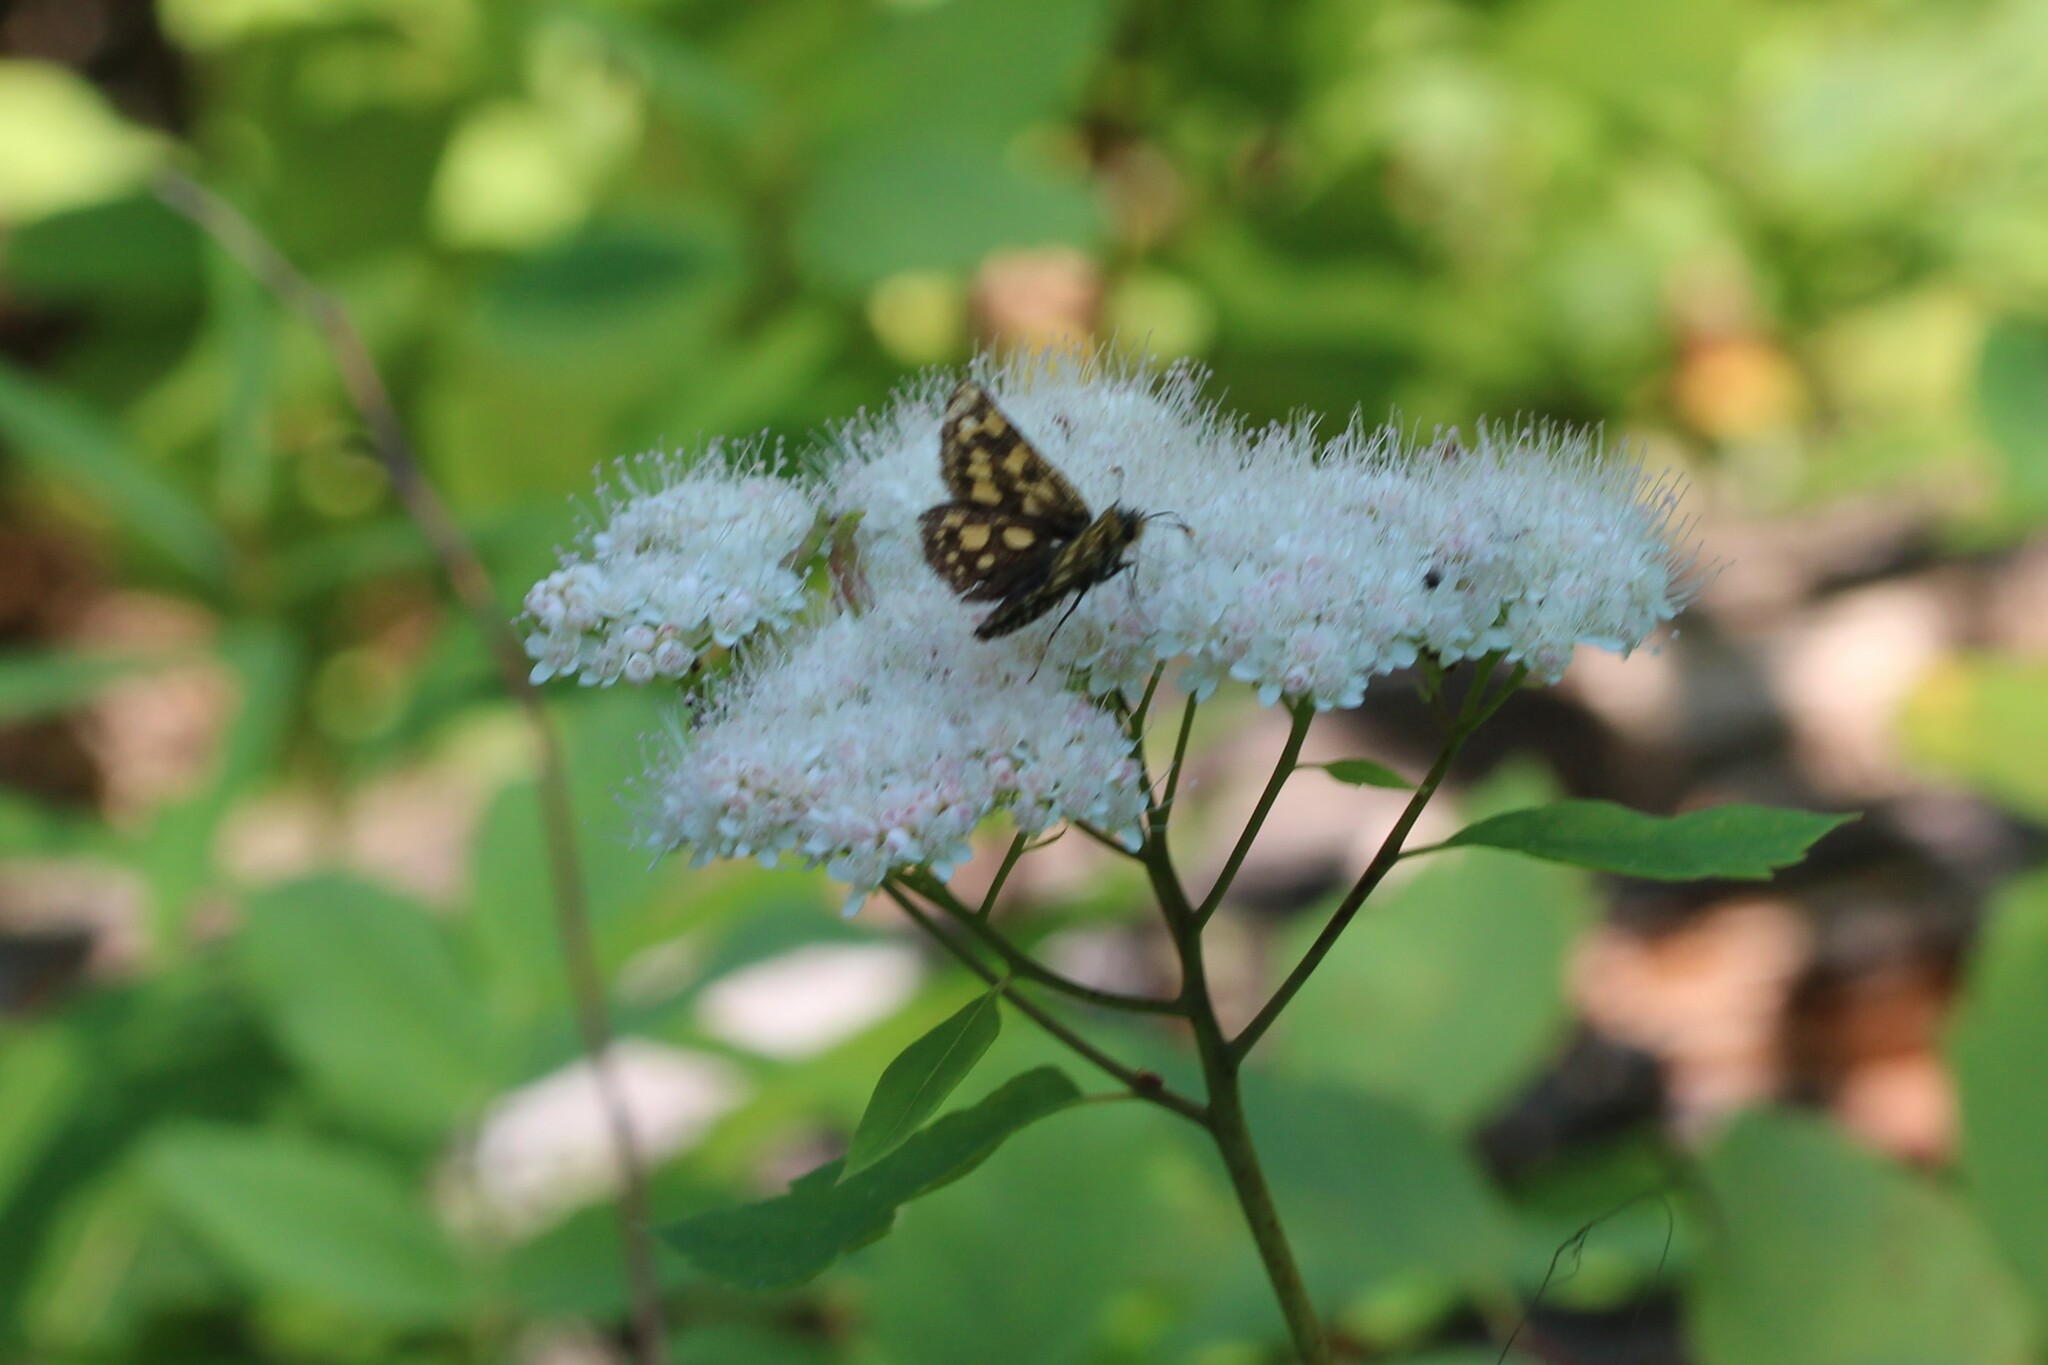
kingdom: Animalia
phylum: Arthropoda
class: Insecta
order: Lepidoptera
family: Hesperiidae
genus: Carterocephalus
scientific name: Carterocephalus skada
